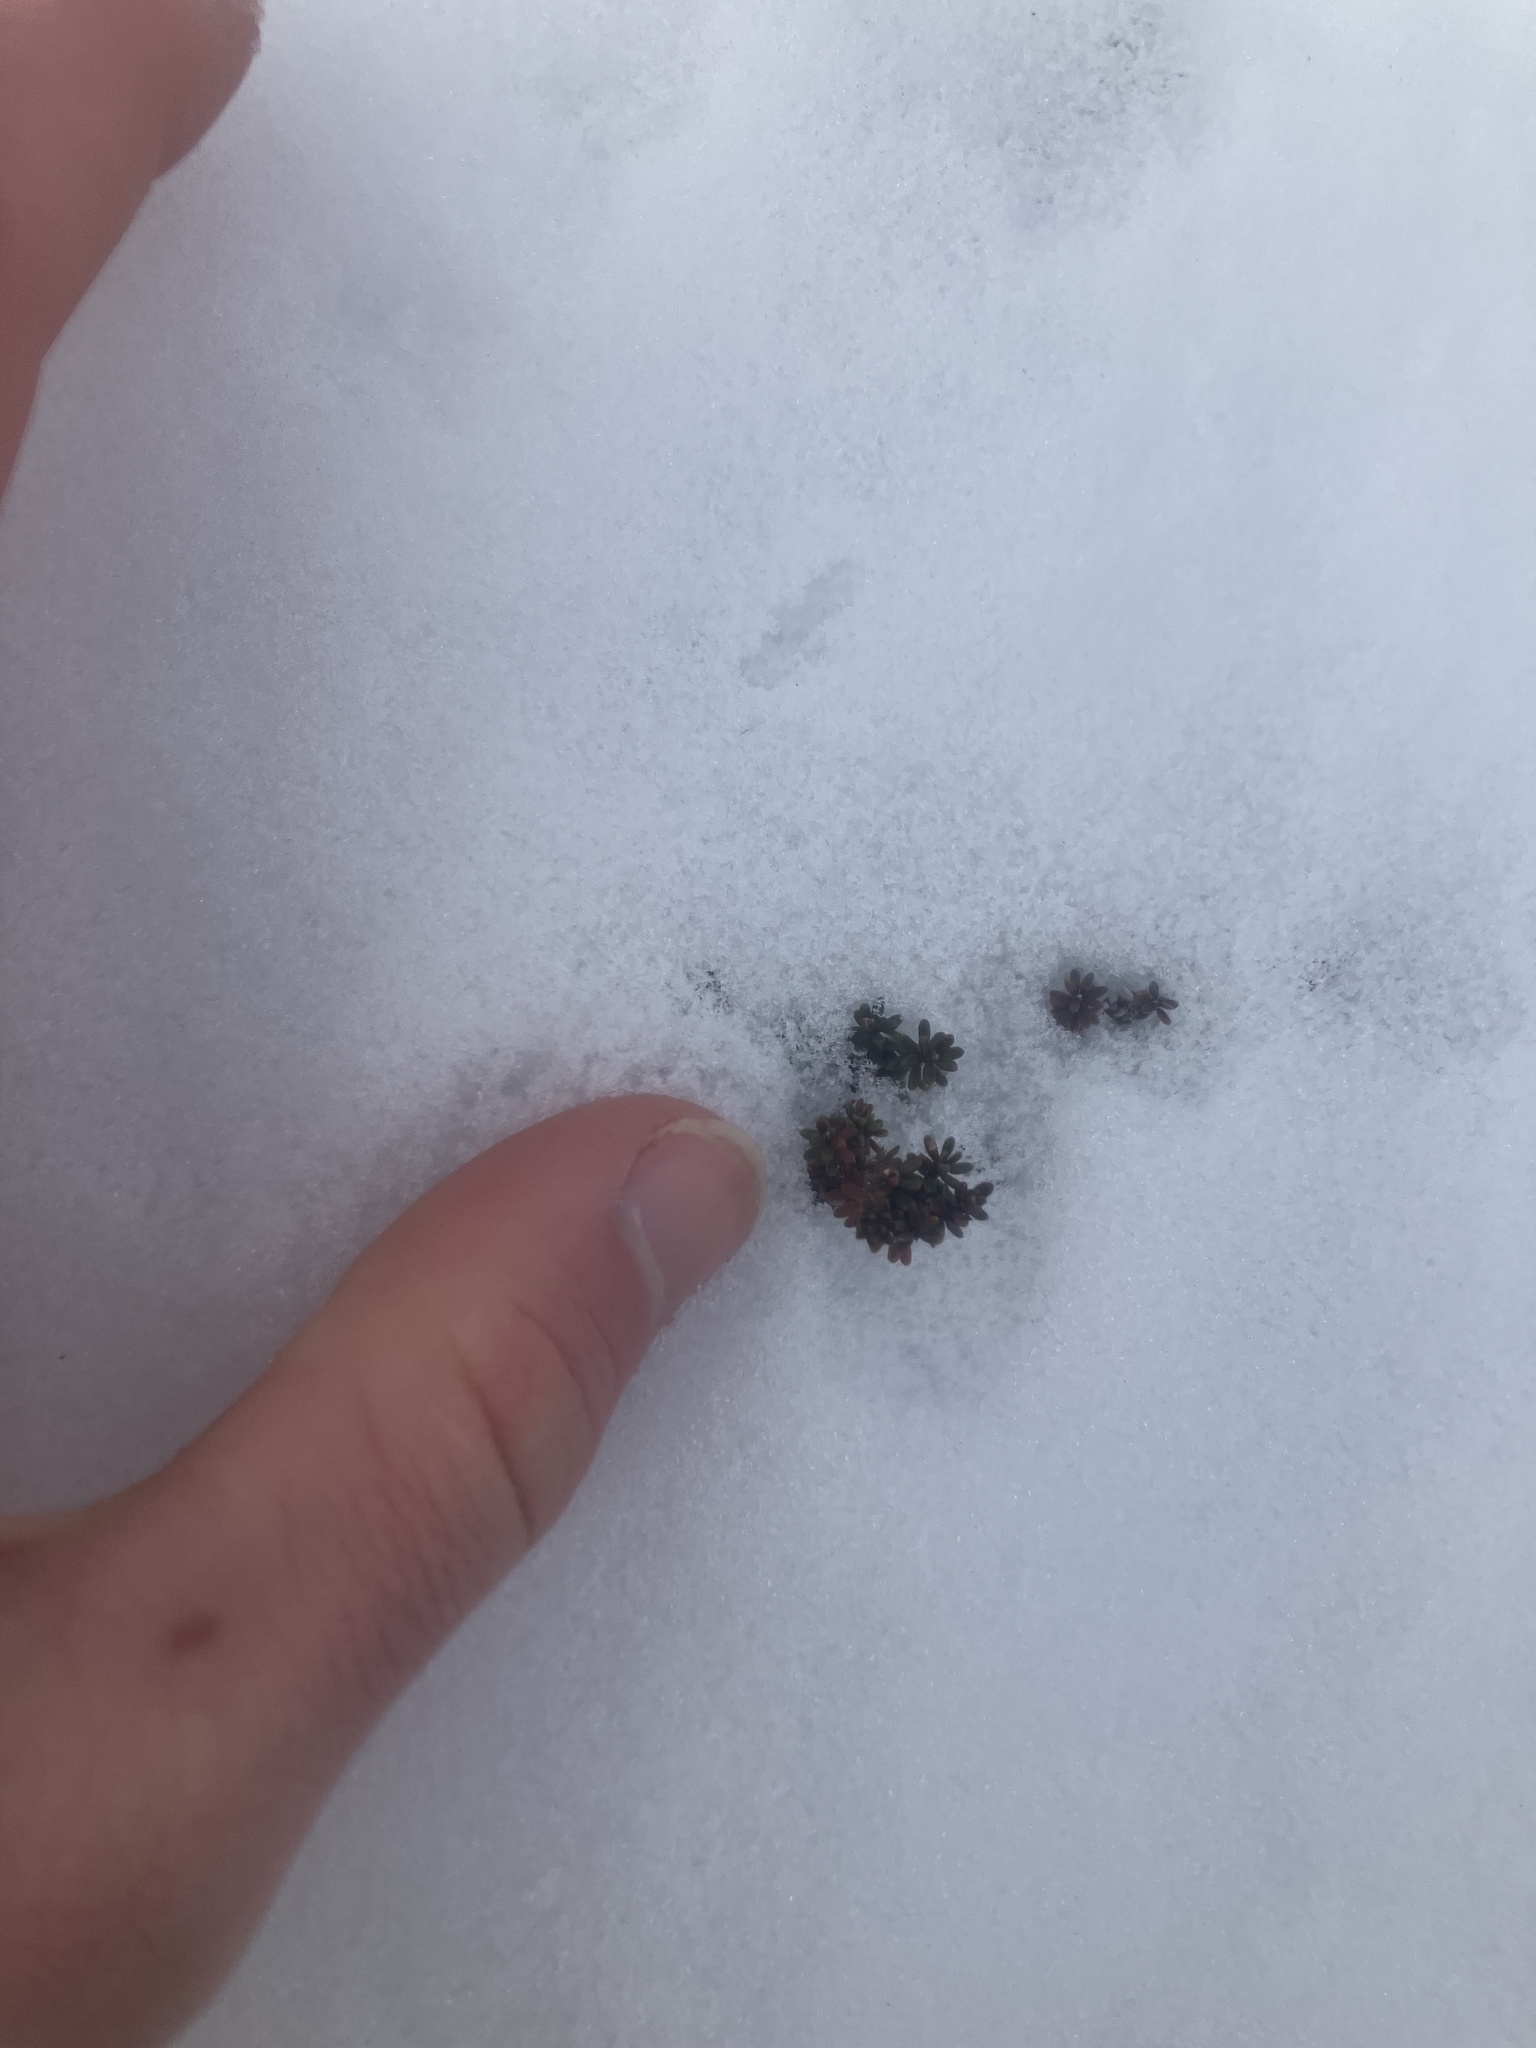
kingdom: Plantae
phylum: Tracheophyta
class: Magnoliopsida
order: Ericales
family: Ericaceae
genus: Empetrum
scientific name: Empetrum nigrum
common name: Black crowberry
